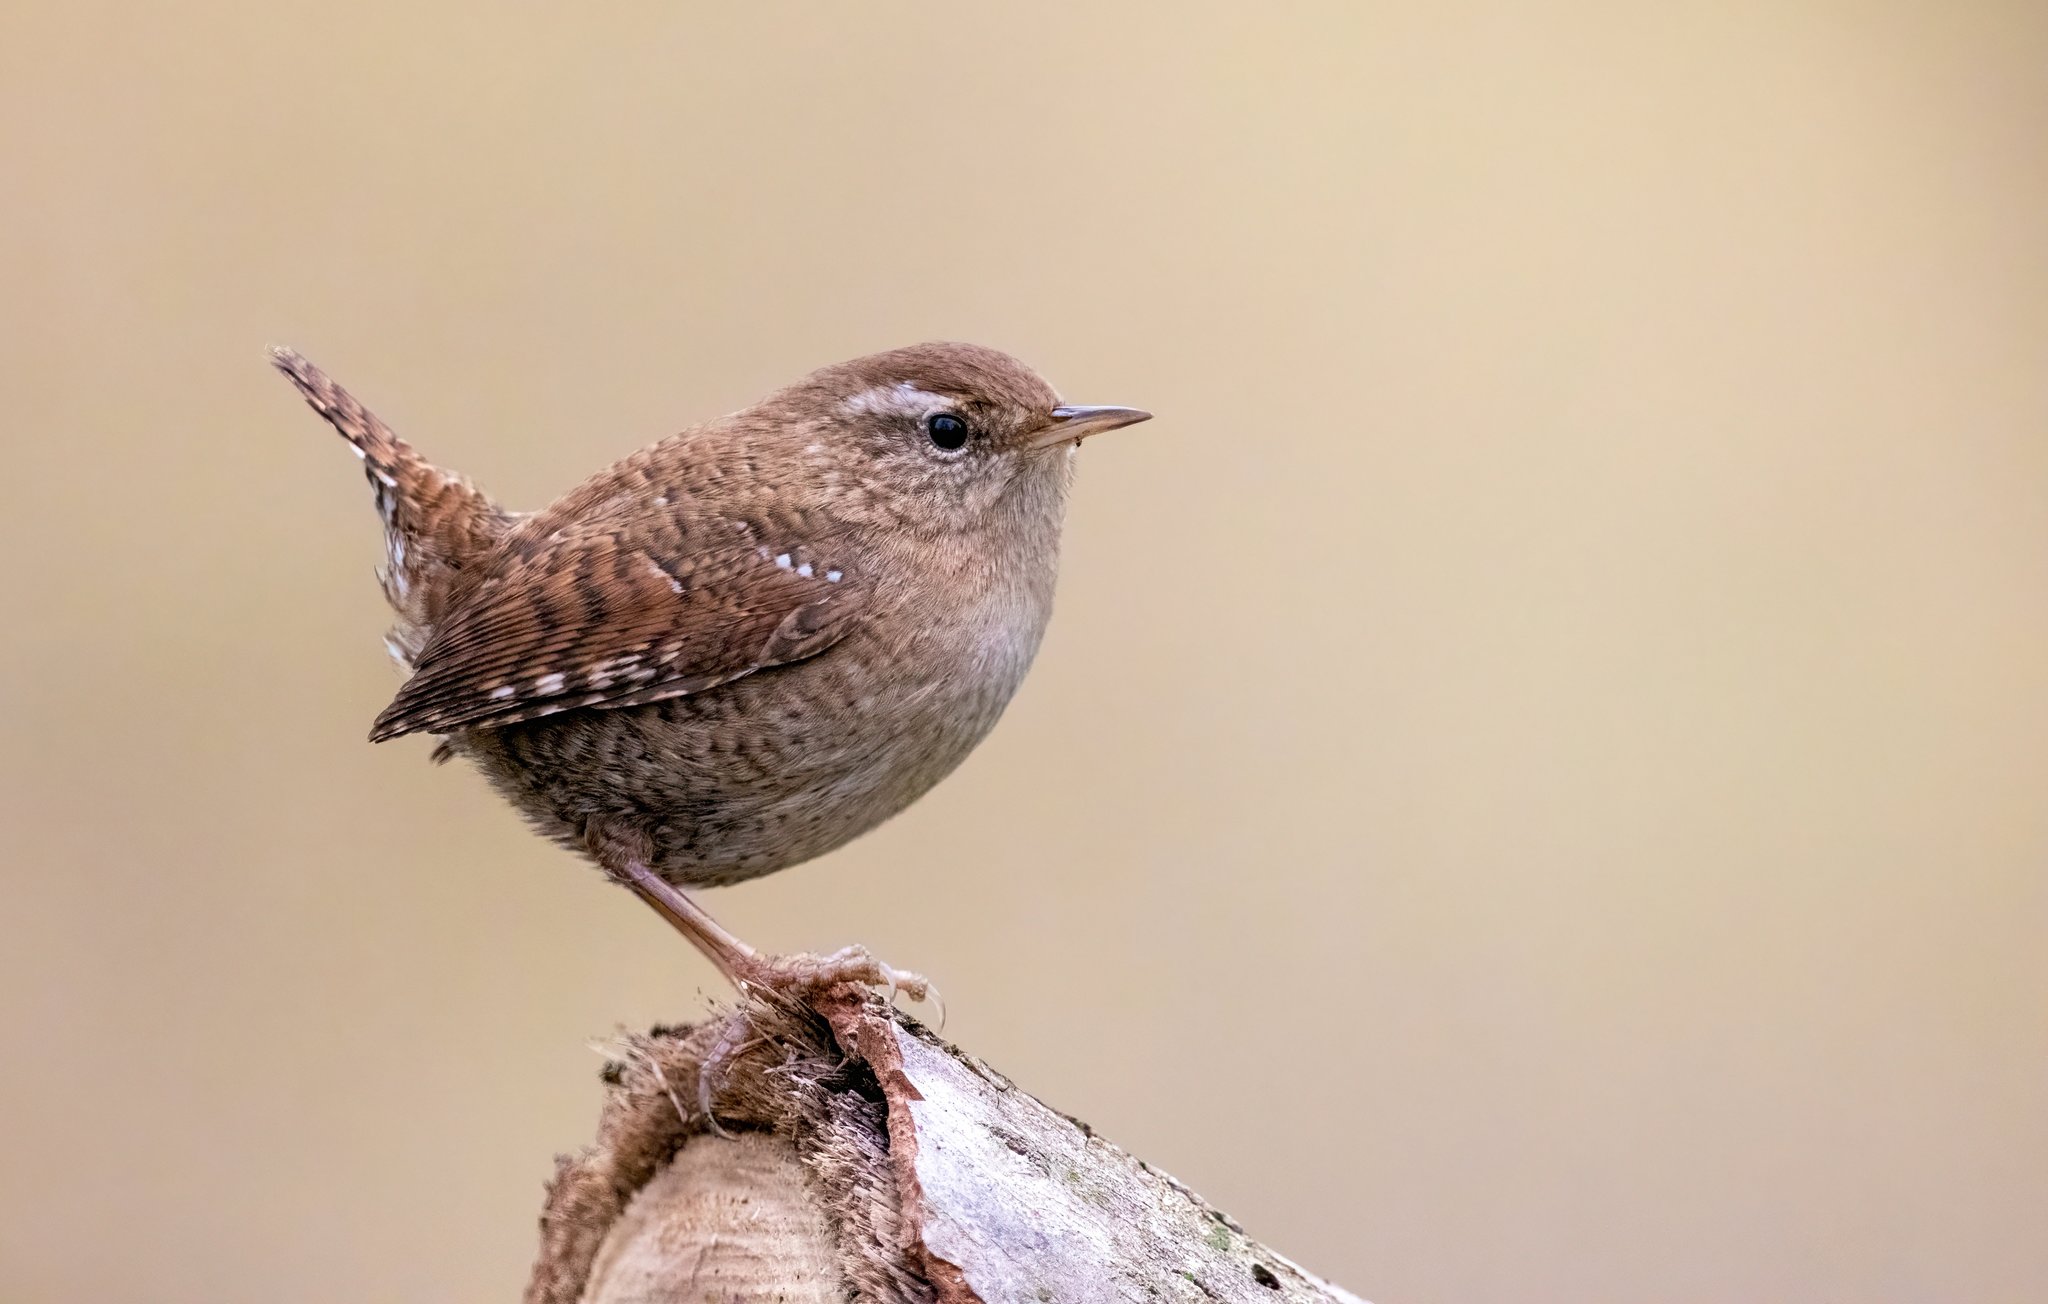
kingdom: Animalia
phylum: Chordata
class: Aves
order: Passeriformes
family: Troglodytidae
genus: Troglodytes
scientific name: Troglodytes troglodytes
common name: Eurasian wren
